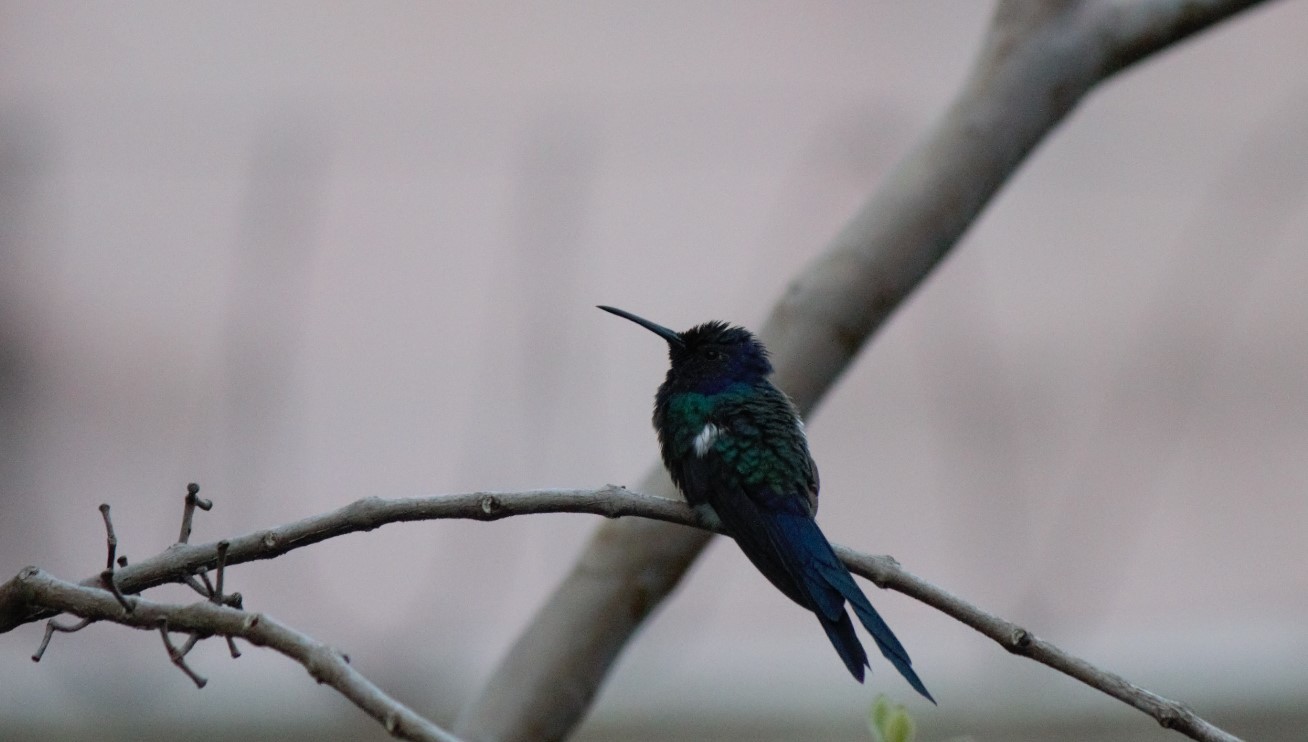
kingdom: Animalia
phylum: Chordata
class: Aves
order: Apodiformes
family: Trochilidae
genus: Eupetomena
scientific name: Eupetomena macroura
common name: Swallow-tailed hummingbird
